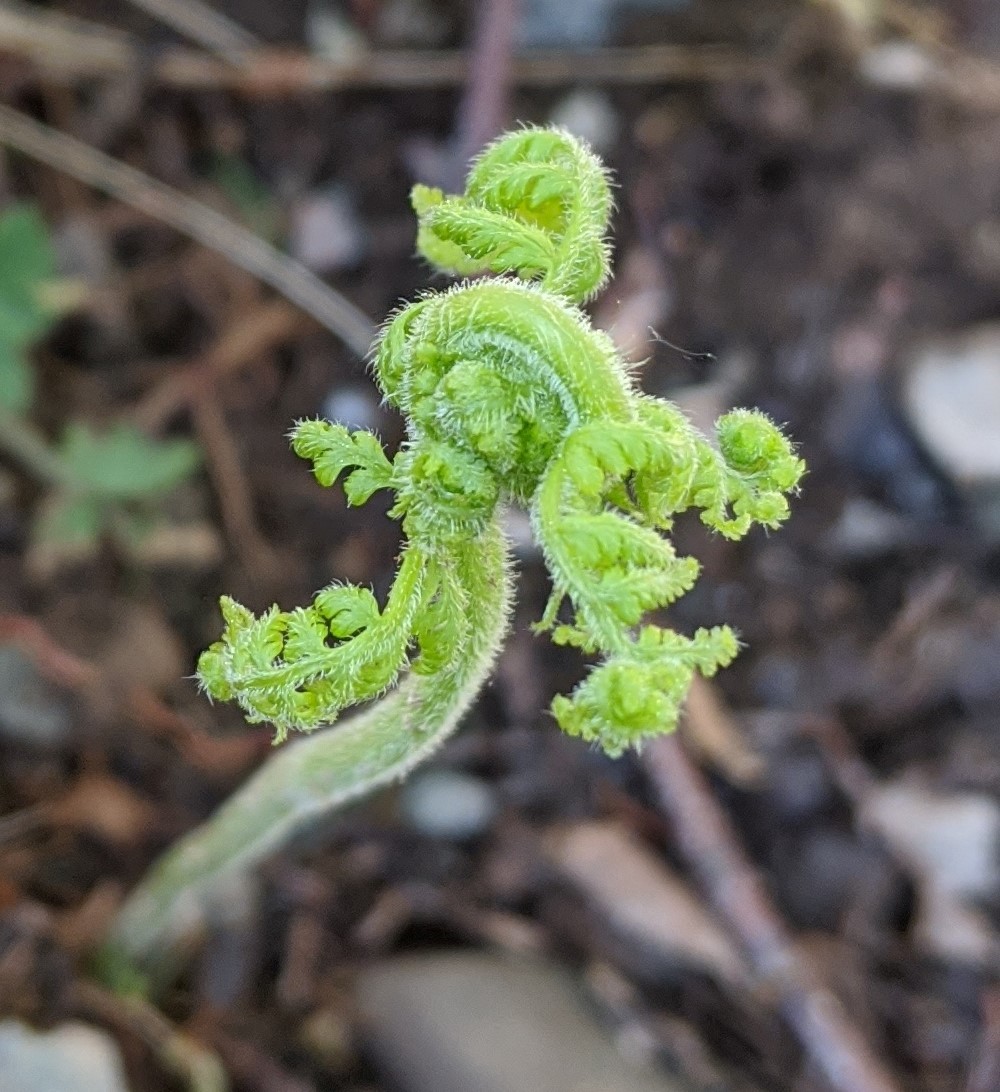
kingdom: Plantae
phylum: Tracheophyta
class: Polypodiopsida
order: Polypodiales
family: Dennstaedtiaceae
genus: Pteridium
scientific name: Pteridium aquilinum
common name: Bracken
